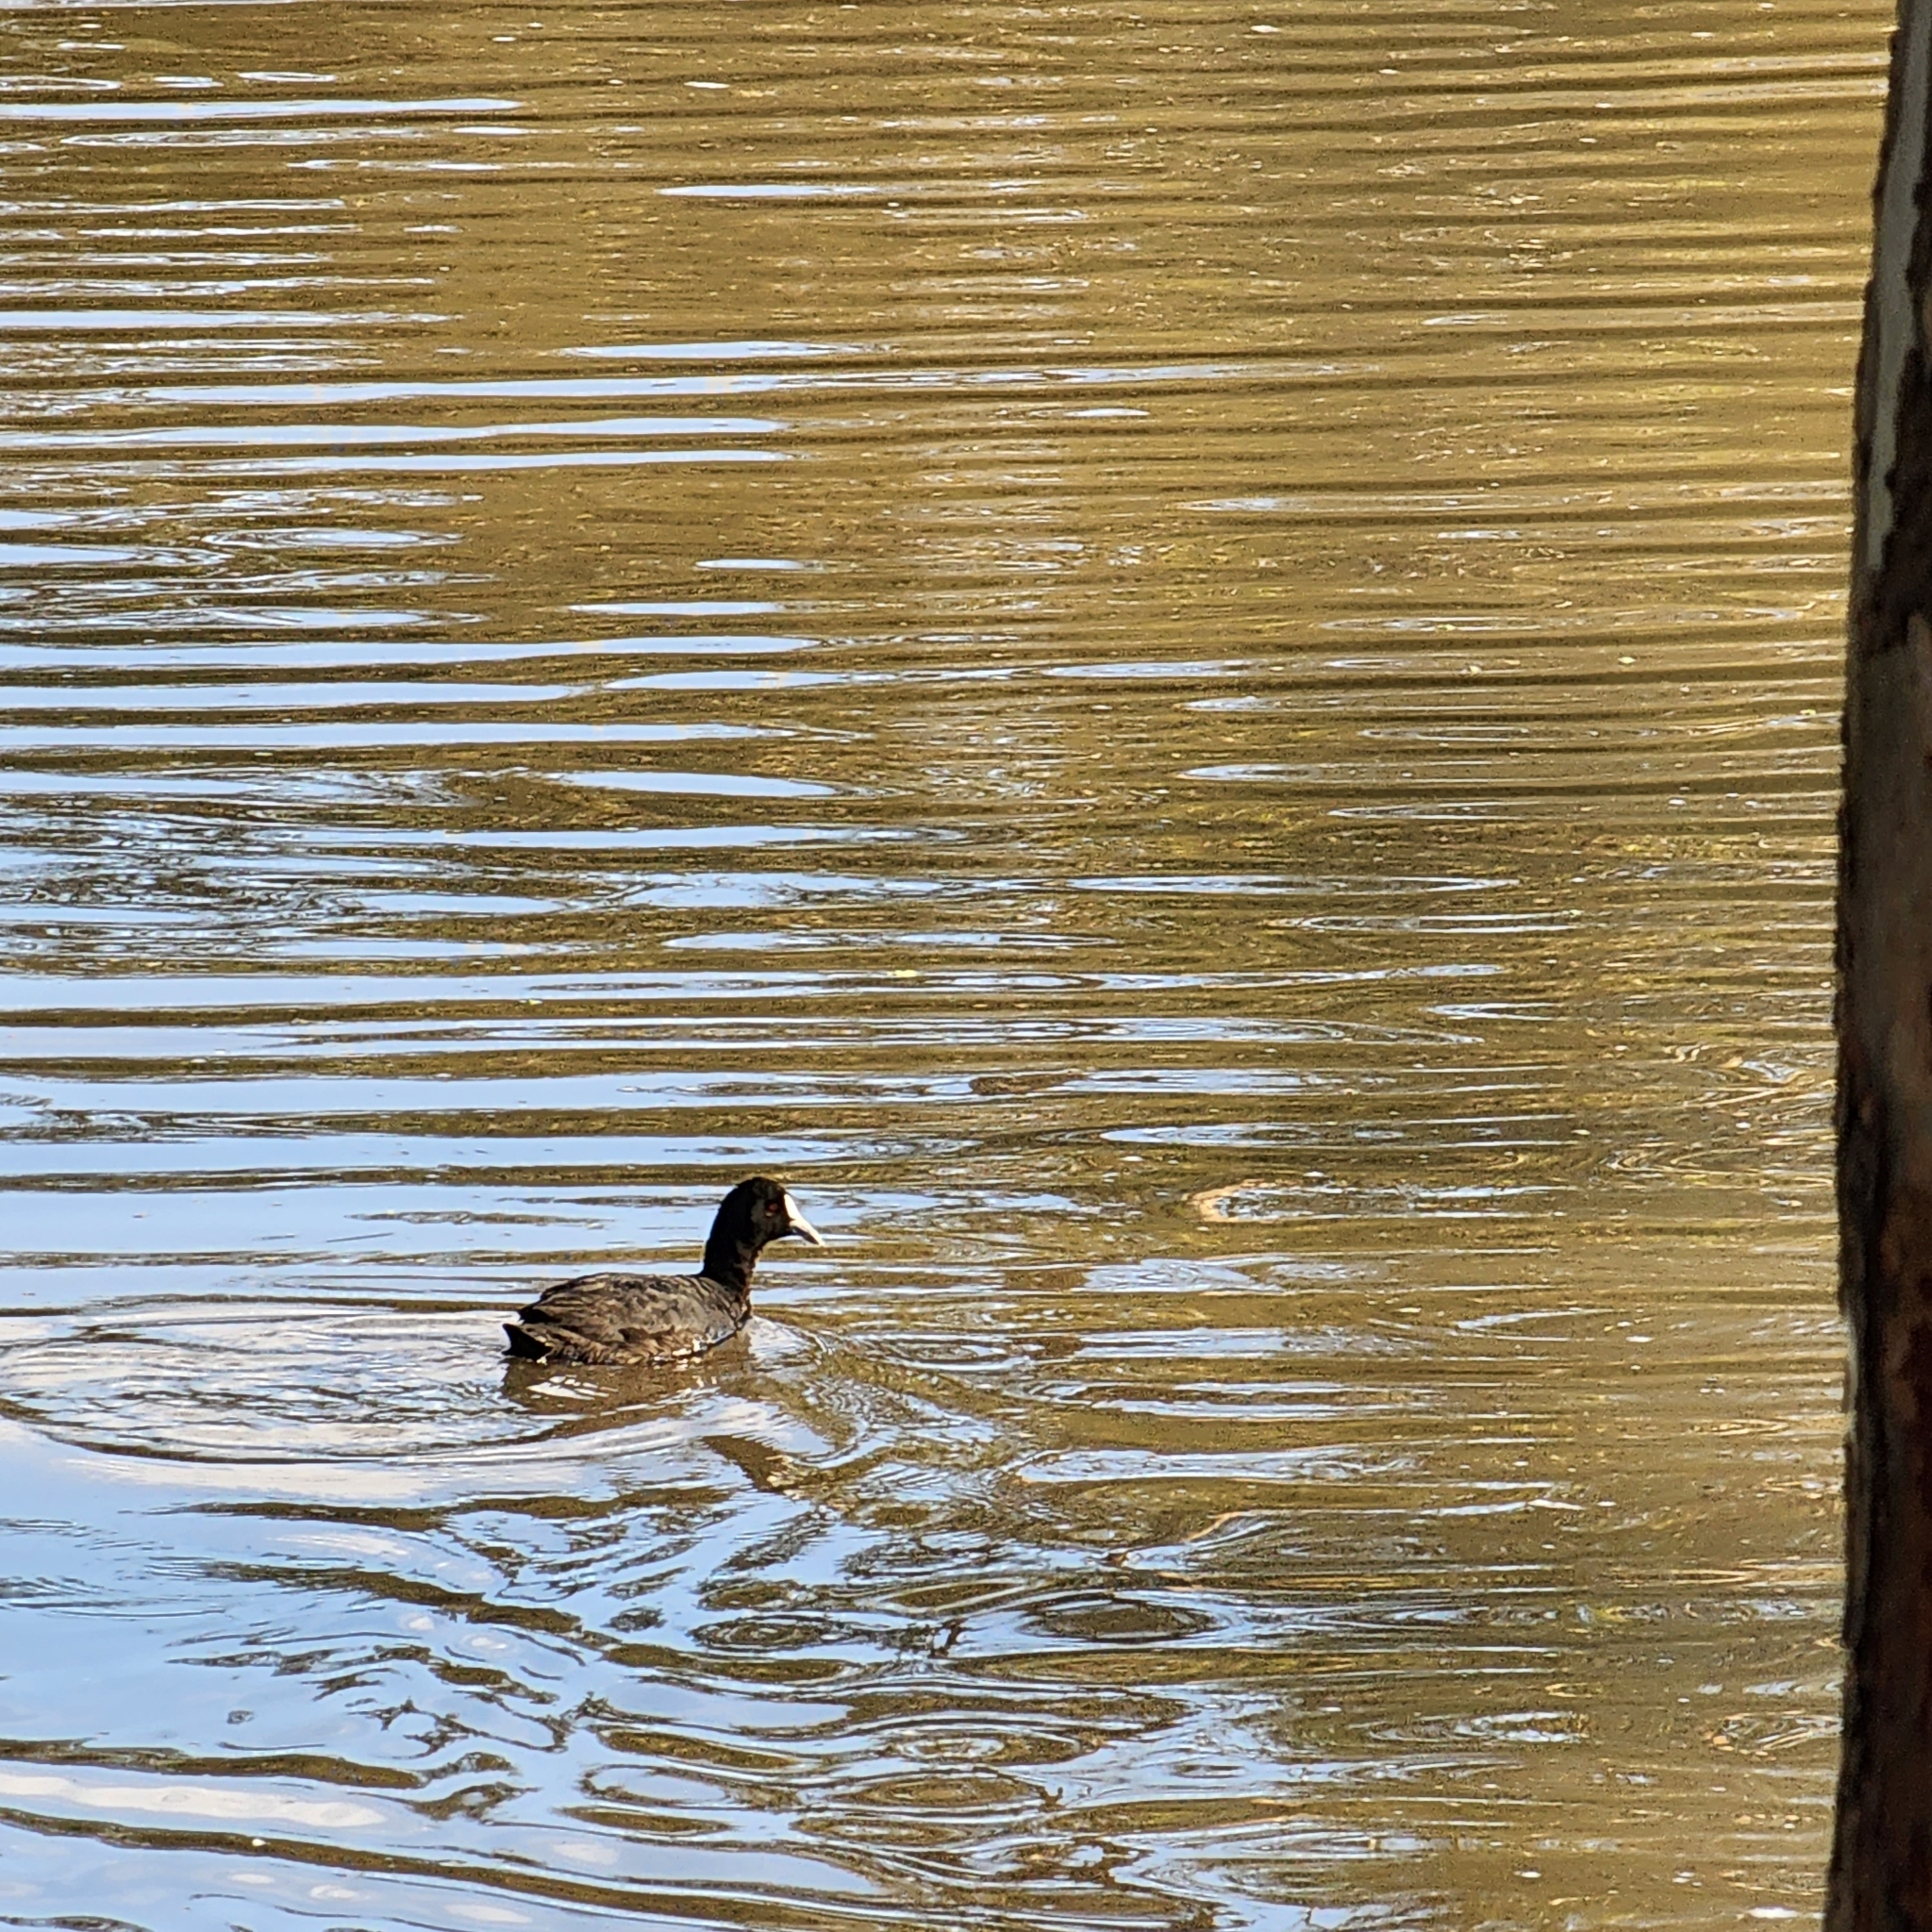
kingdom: Animalia
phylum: Chordata
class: Aves
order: Gruiformes
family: Rallidae
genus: Fulica
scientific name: Fulica atra
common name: Eurasian coot
